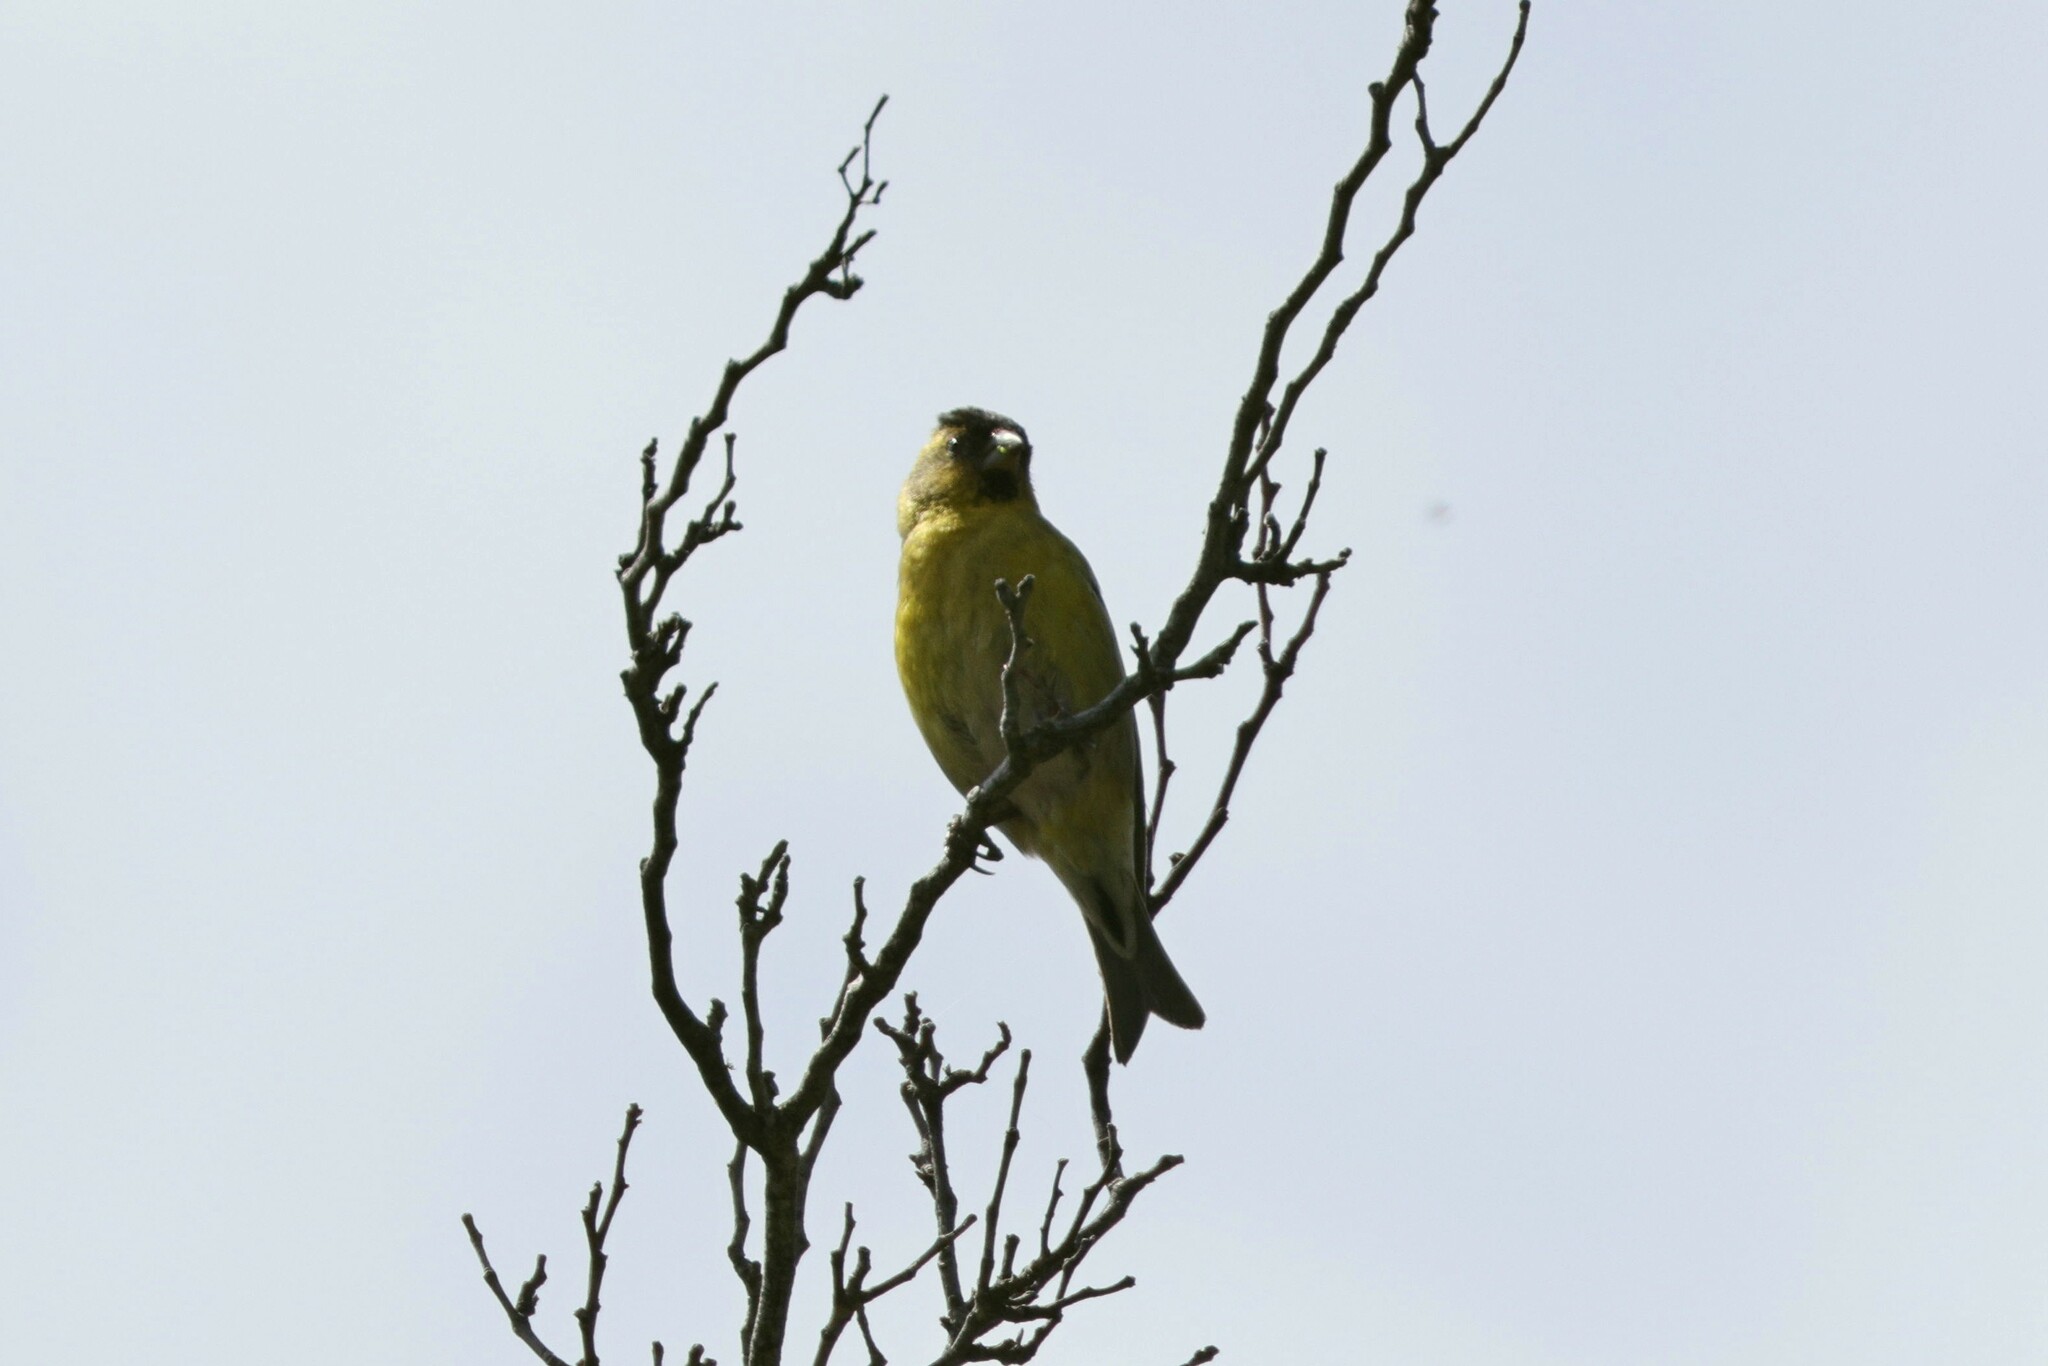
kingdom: Animalia
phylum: Chordata
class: Aves
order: Passeriformes
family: Fringillidae
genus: Spinus
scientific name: Spinus barbatus
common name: Black-chinned siskin
